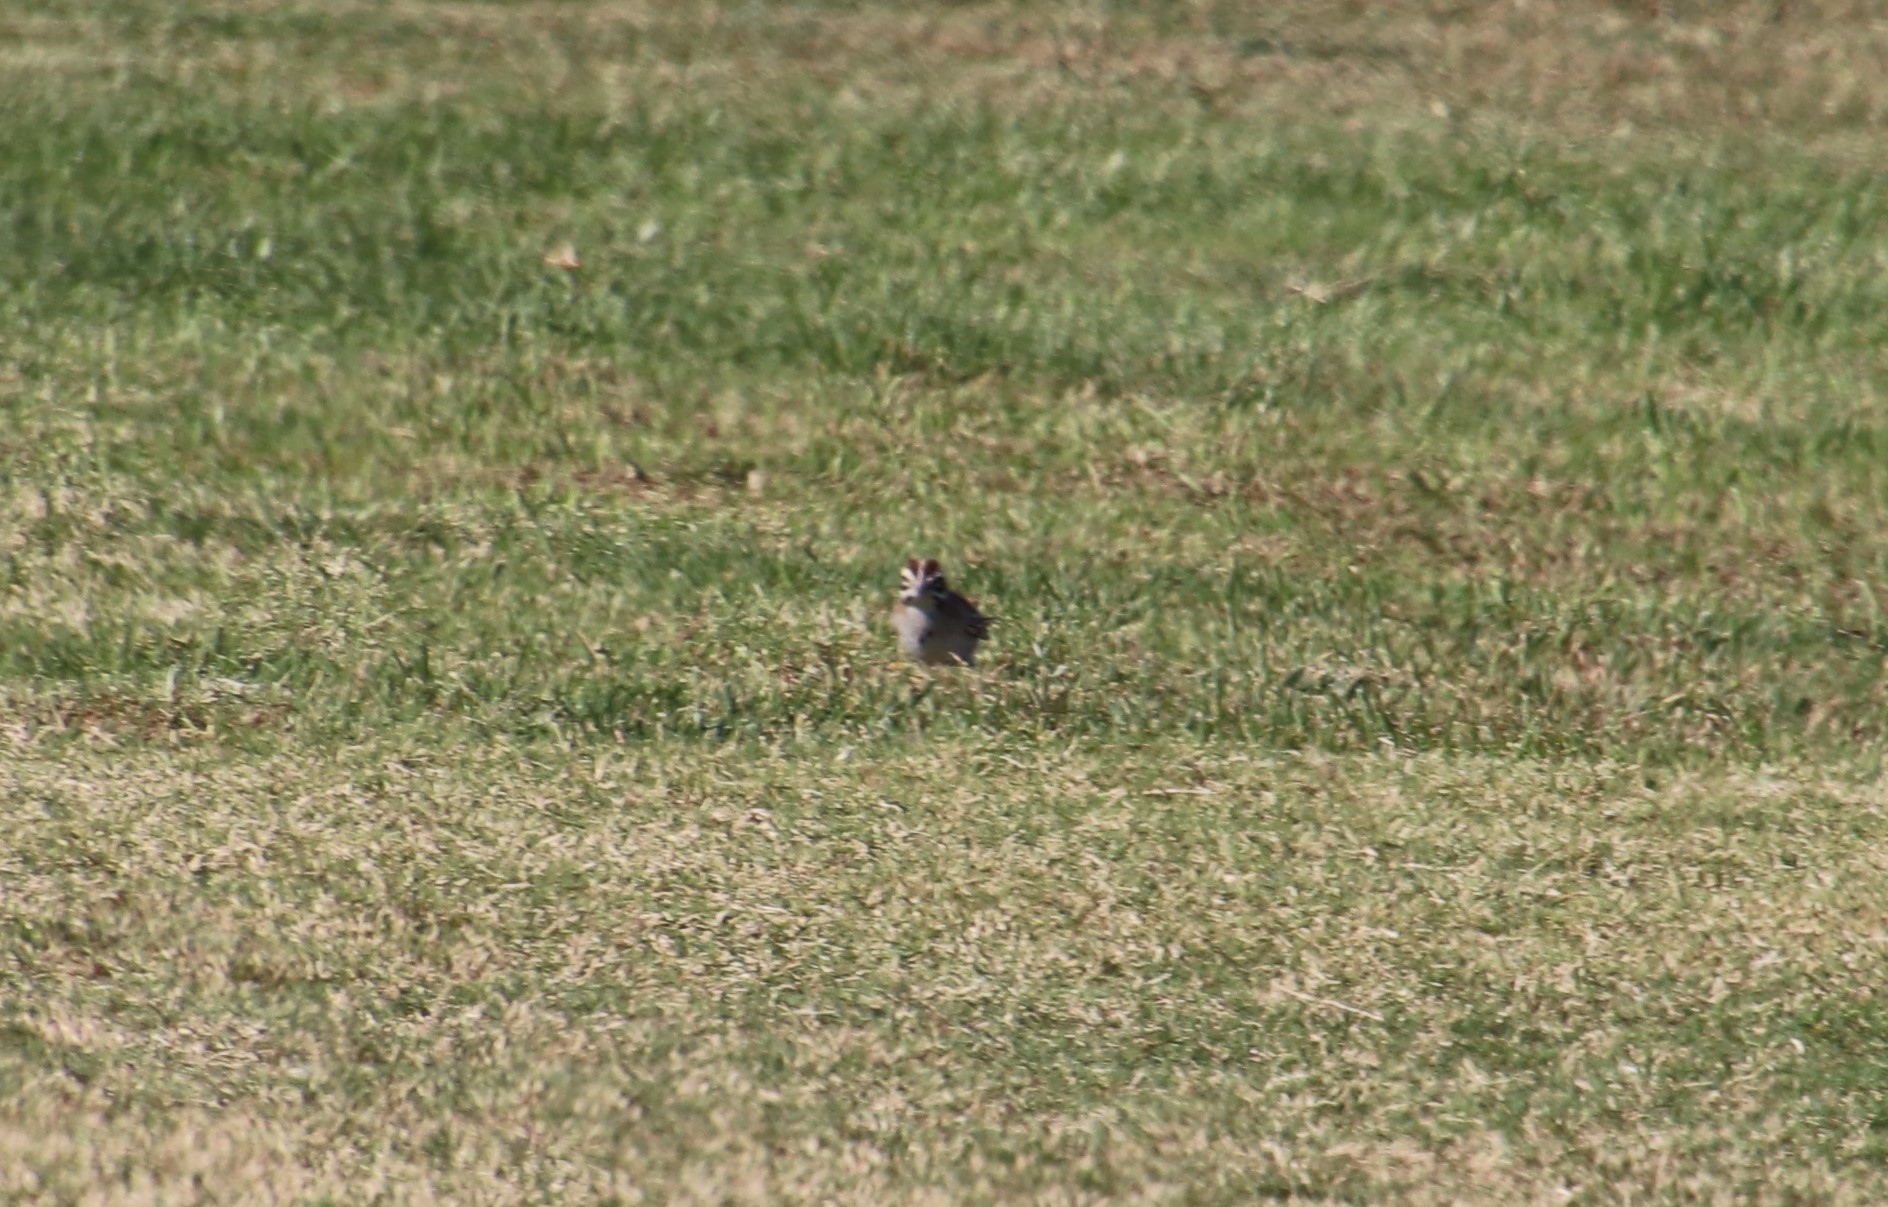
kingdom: Animalia
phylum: Chordata
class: Aves
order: Passeriformes
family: Passerellidae
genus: Chondestes
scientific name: Chondestes grammacus
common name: Lark sparrow
